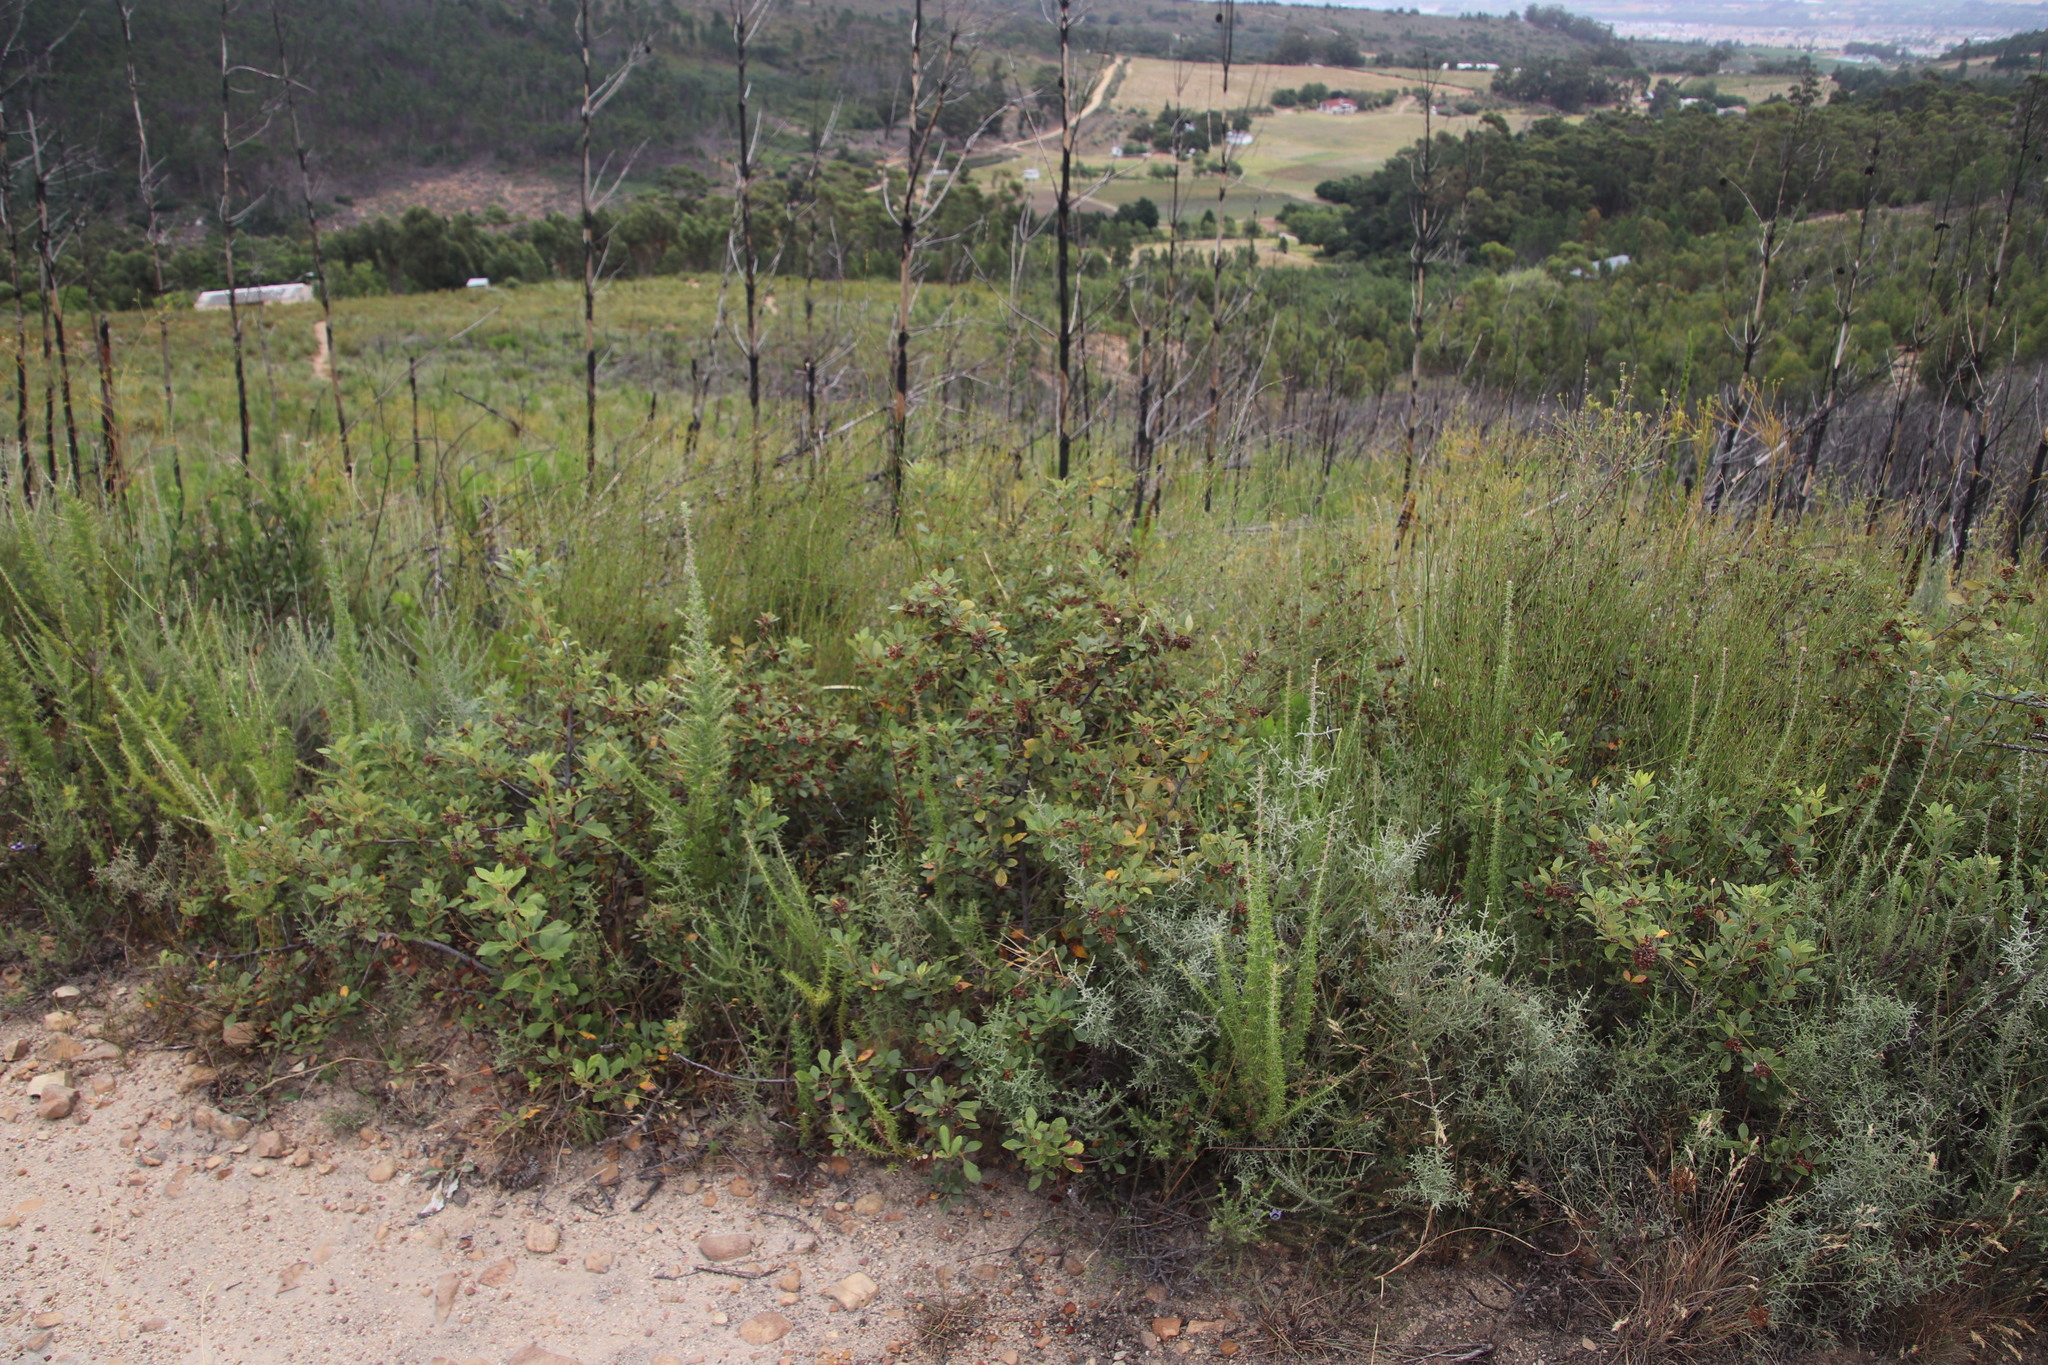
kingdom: Plantae
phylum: Tracheophyta
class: Magnoliopsida
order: Sapindales
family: Anacardiaceae
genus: Searsia
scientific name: Searsia tomentosa
